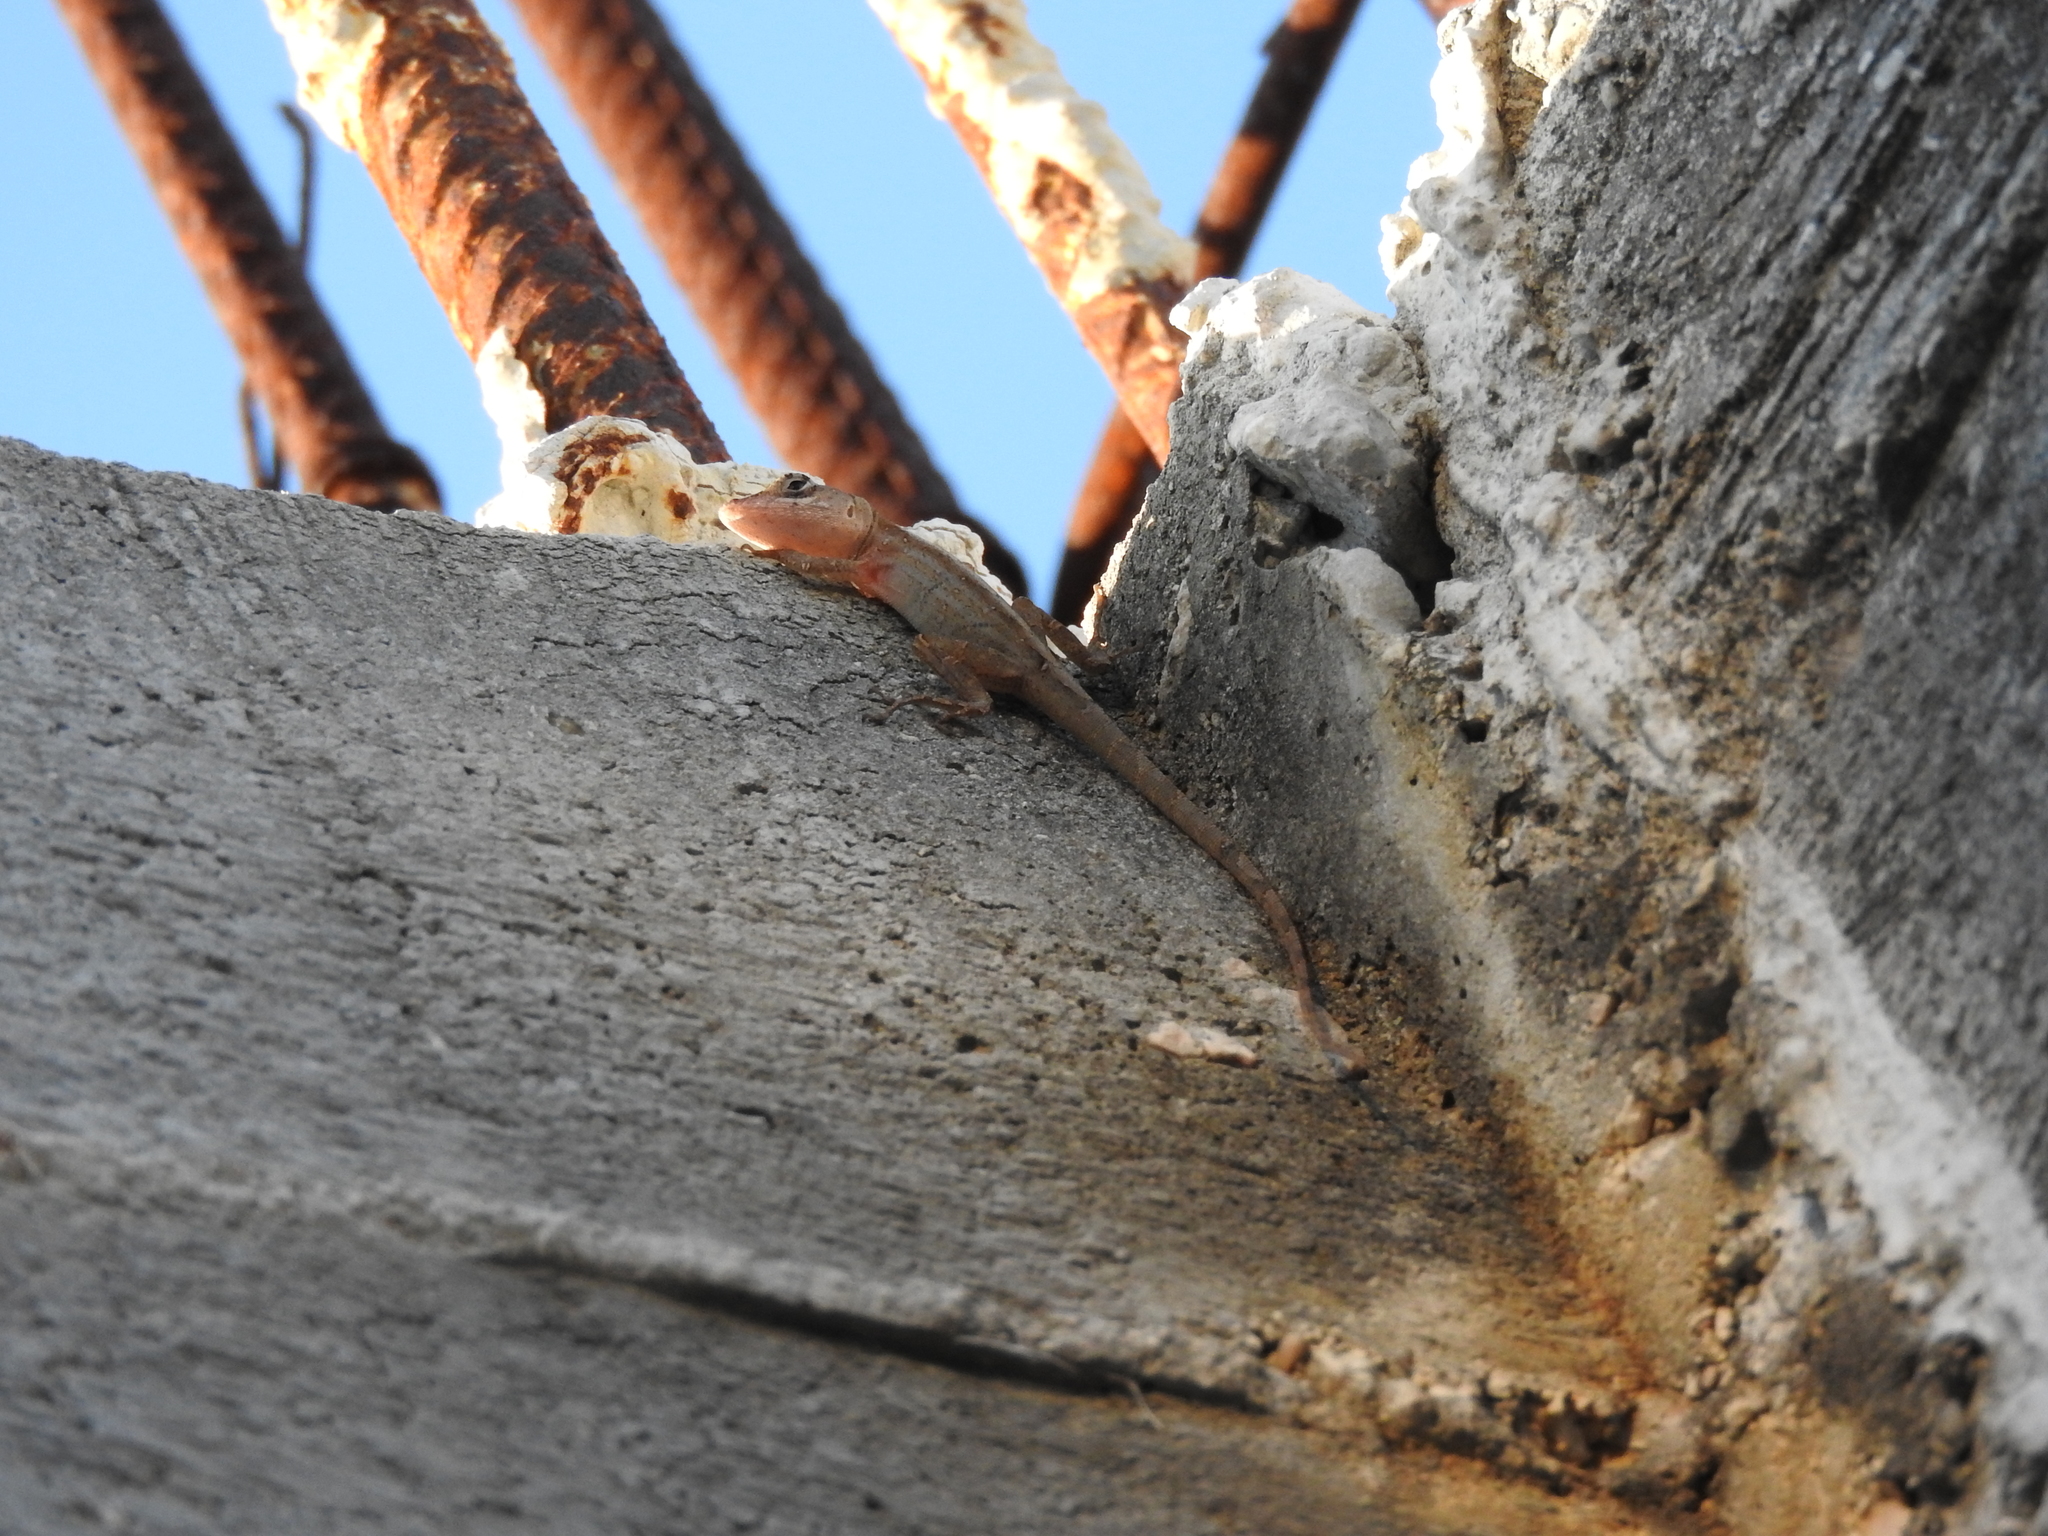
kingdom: Animalia
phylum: Chordata
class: Squamata
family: Dactyloidae
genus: Anolis
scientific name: Anolis sagrei
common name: Brown anole
